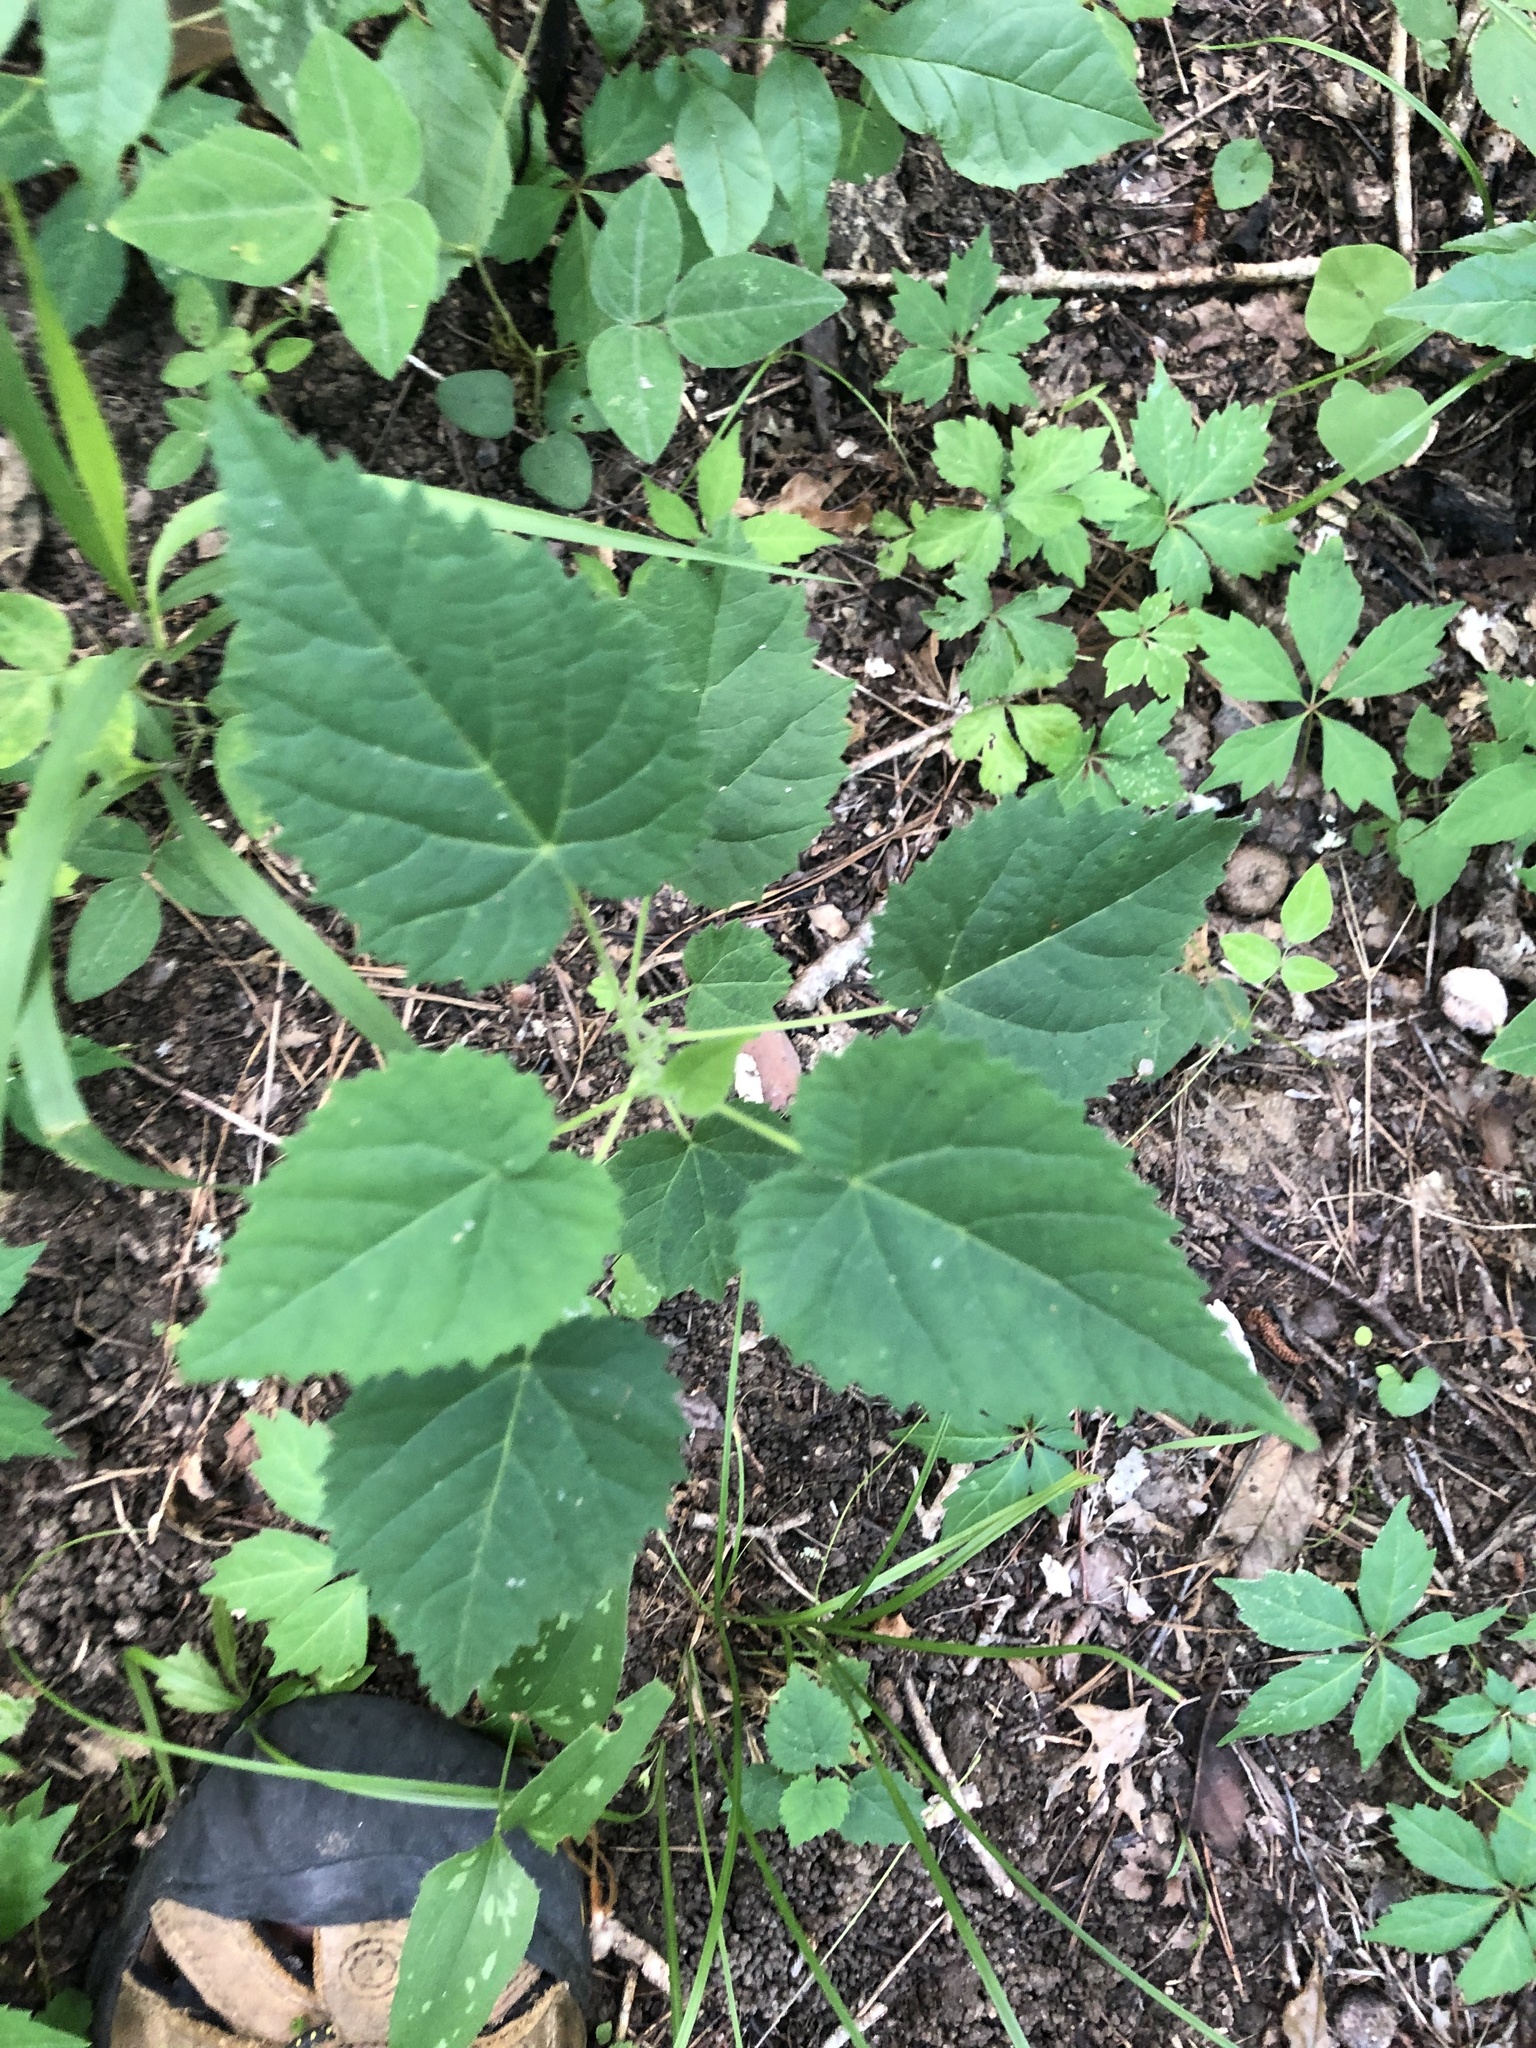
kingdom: Plantae
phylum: Tracheophyta
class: Magnoliopsida
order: Malpighiales
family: Euphorbiaceae
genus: Tragia
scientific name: Tragia cordata
